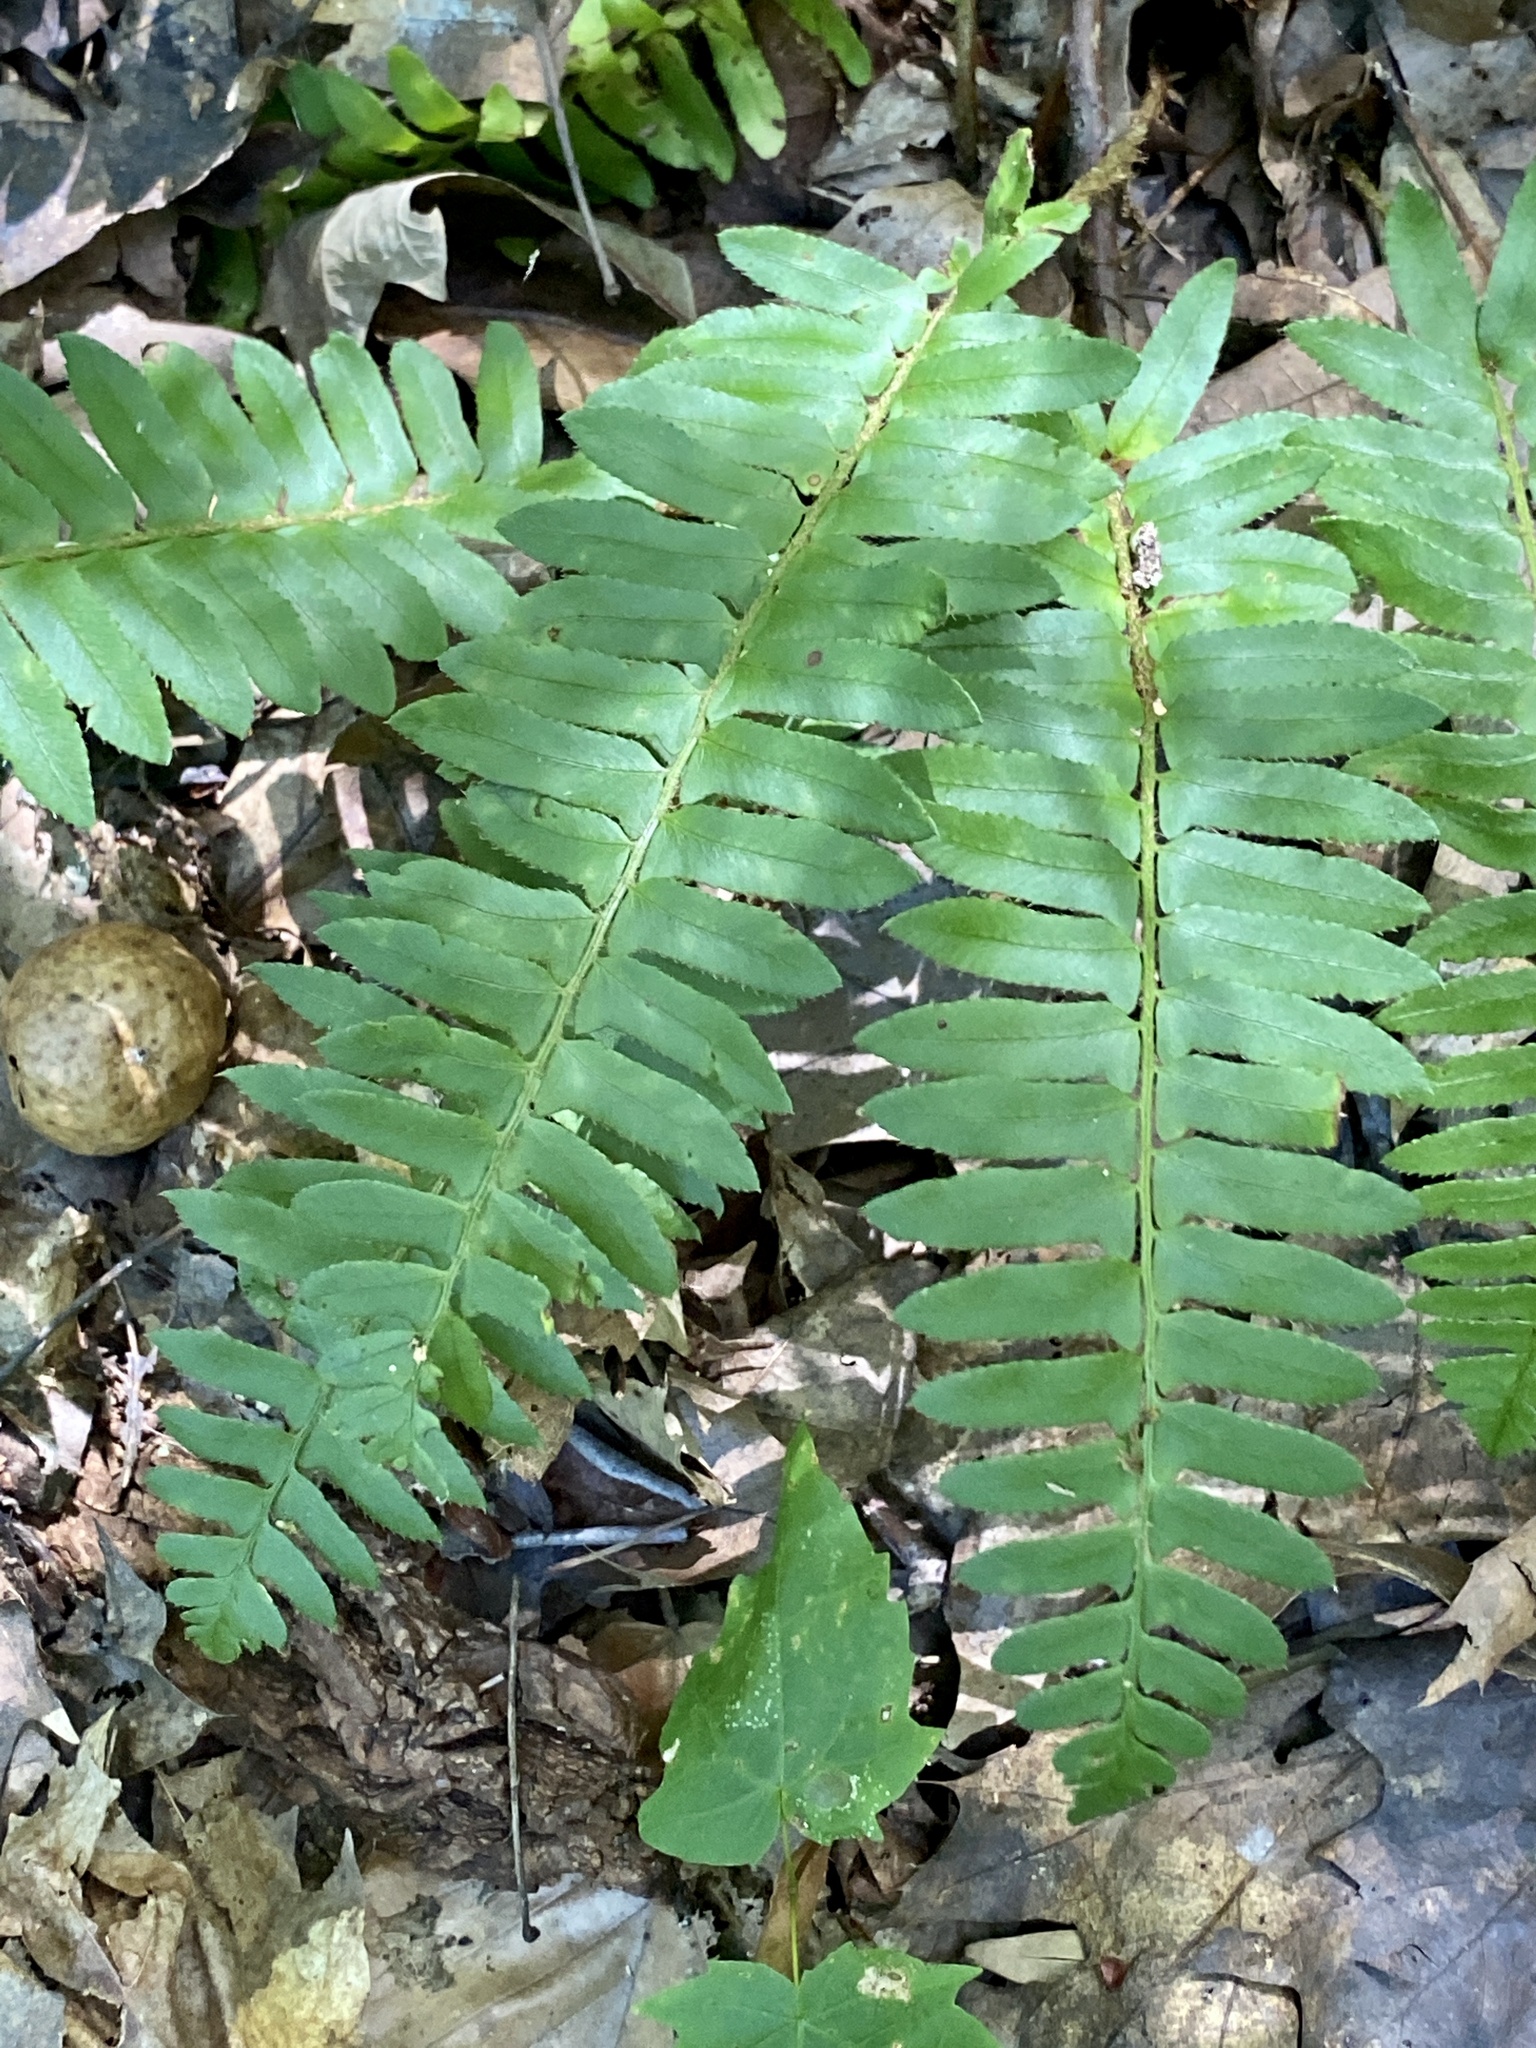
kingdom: Plantae
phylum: Tracheophyta
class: Polypodiopsida
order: Polypodiales
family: Dryopteridaceae
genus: Polystichum
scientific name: Polystichum acrostichoides
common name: Christmas fern
